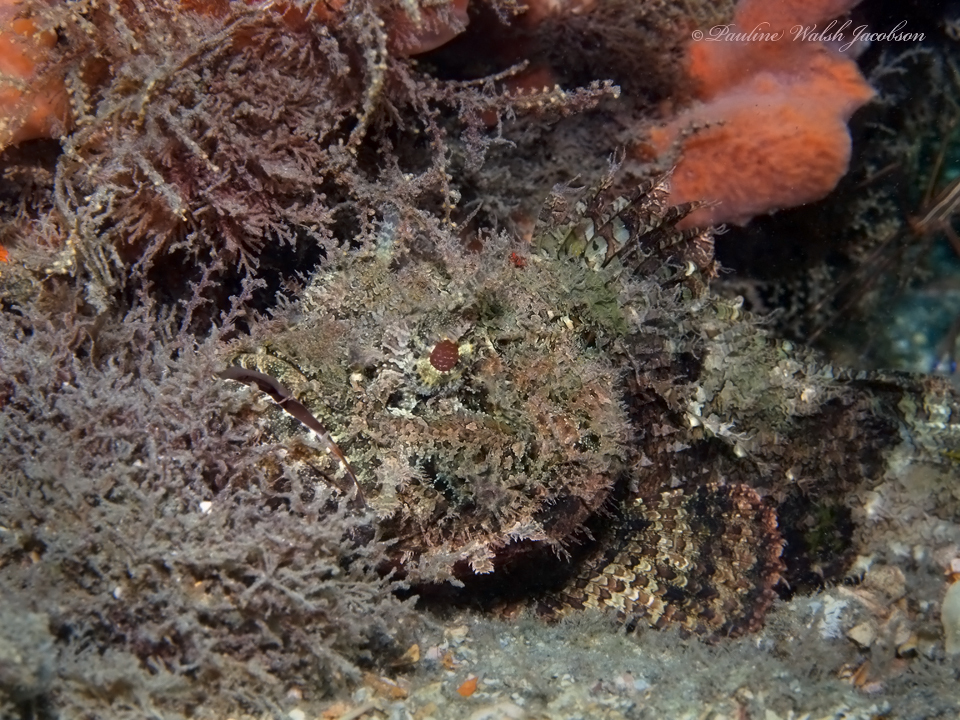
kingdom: Animalia
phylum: Chordata
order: Scorpaeniformes
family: Scorpaenidae
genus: Scorpaena
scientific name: Scorpaena plumieri
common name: Spotted scorpionfish
